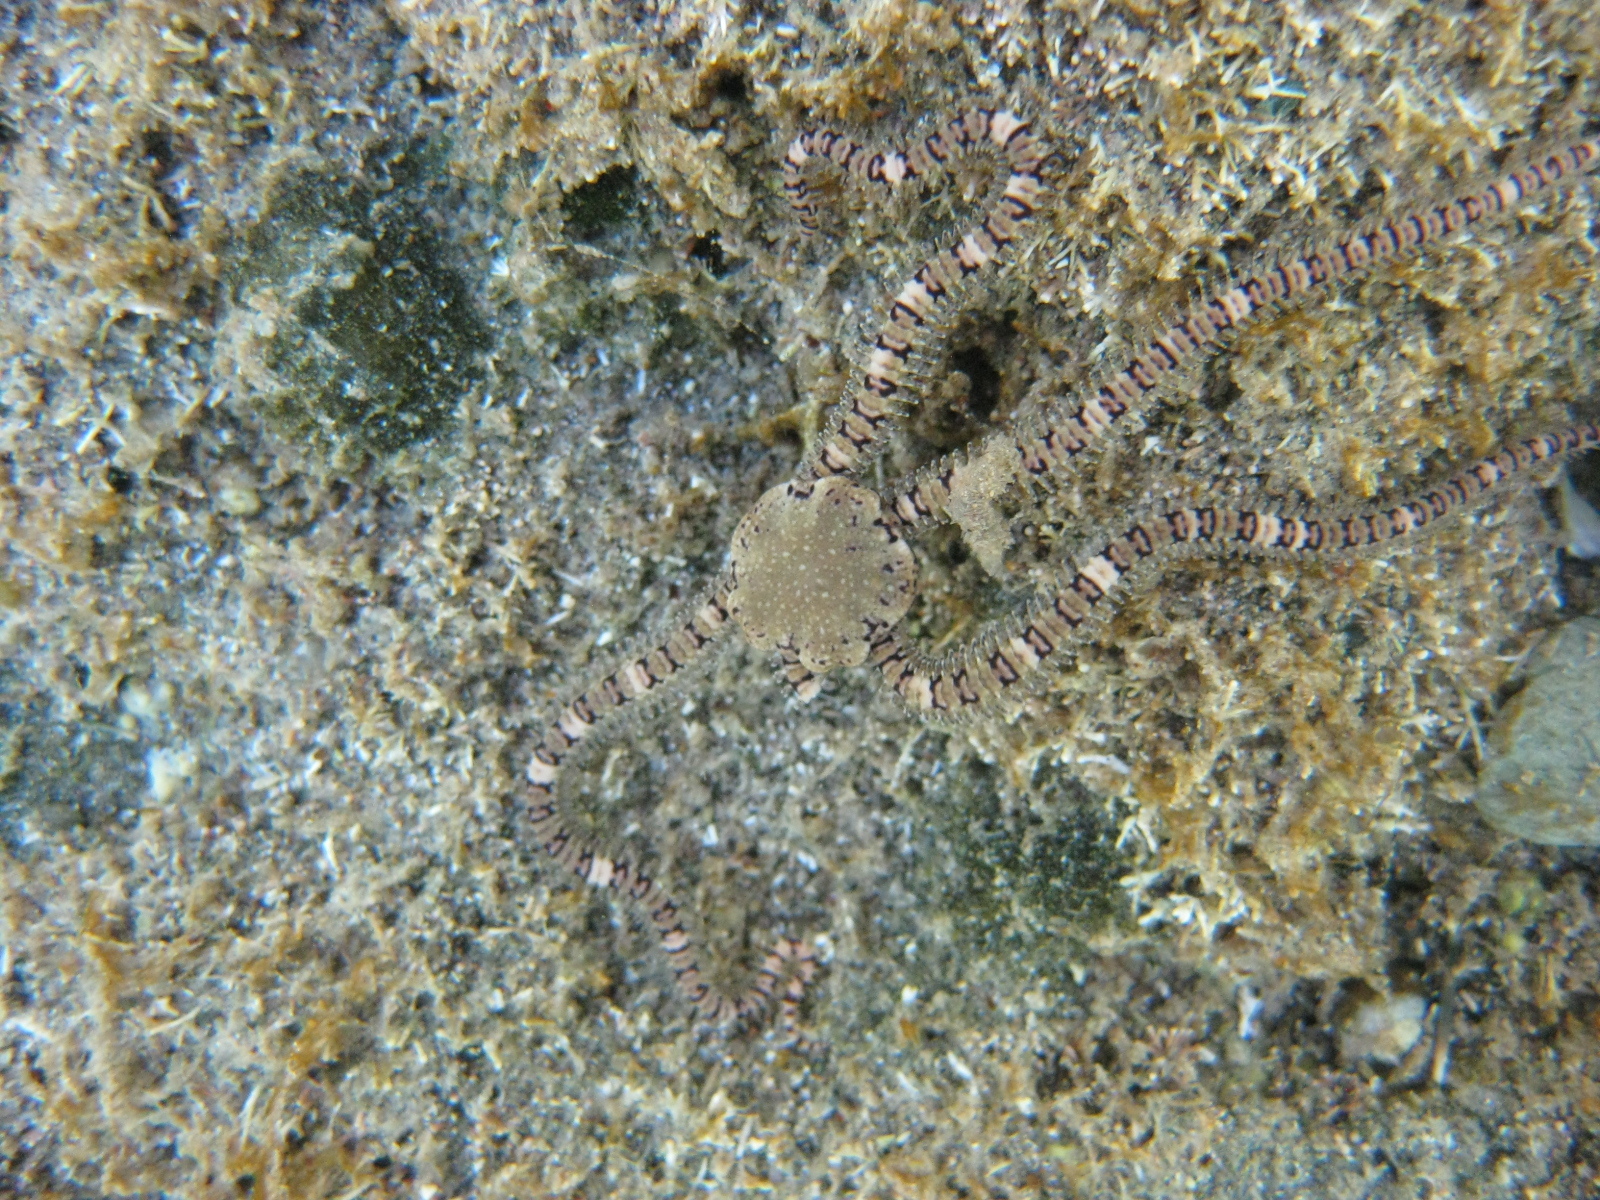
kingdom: Animalia
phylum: Echinodermata
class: Ophiuroidea
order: Amphilepidida
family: Ophionereididae
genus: Ophionereis
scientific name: Ophionereis fasciata
